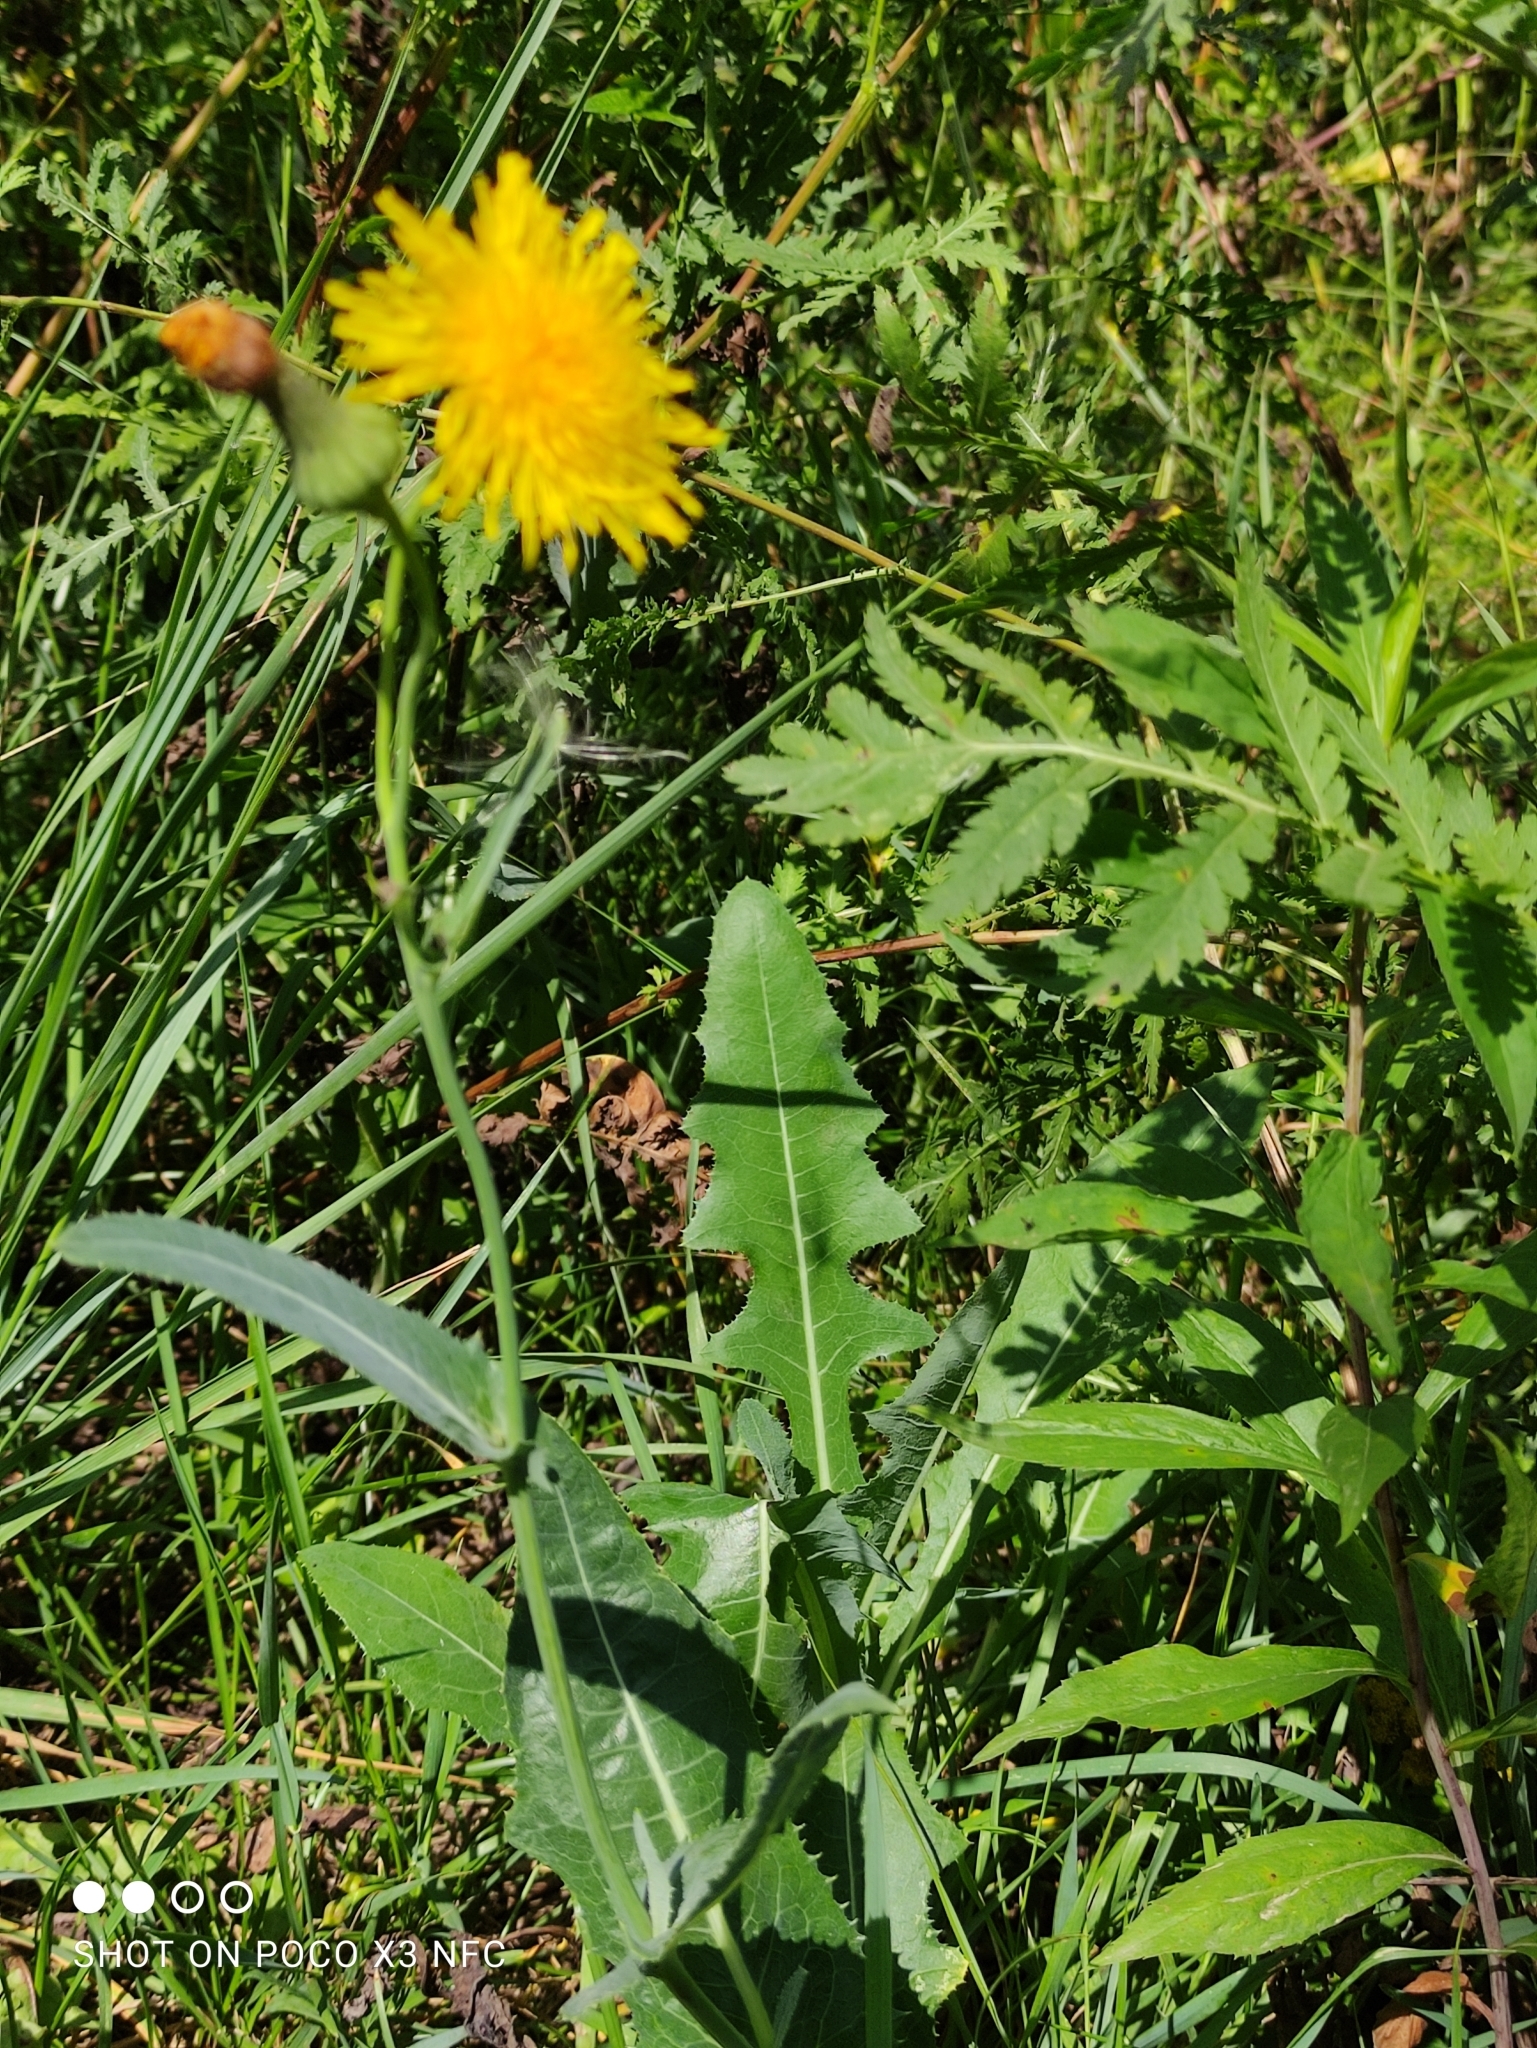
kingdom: Plantae
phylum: Tracheophyta
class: Magnoliopsida
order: Asterales
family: Asteraceae
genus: Sonchus
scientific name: Sonchus arvensis
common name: Perennial sow-thistle
